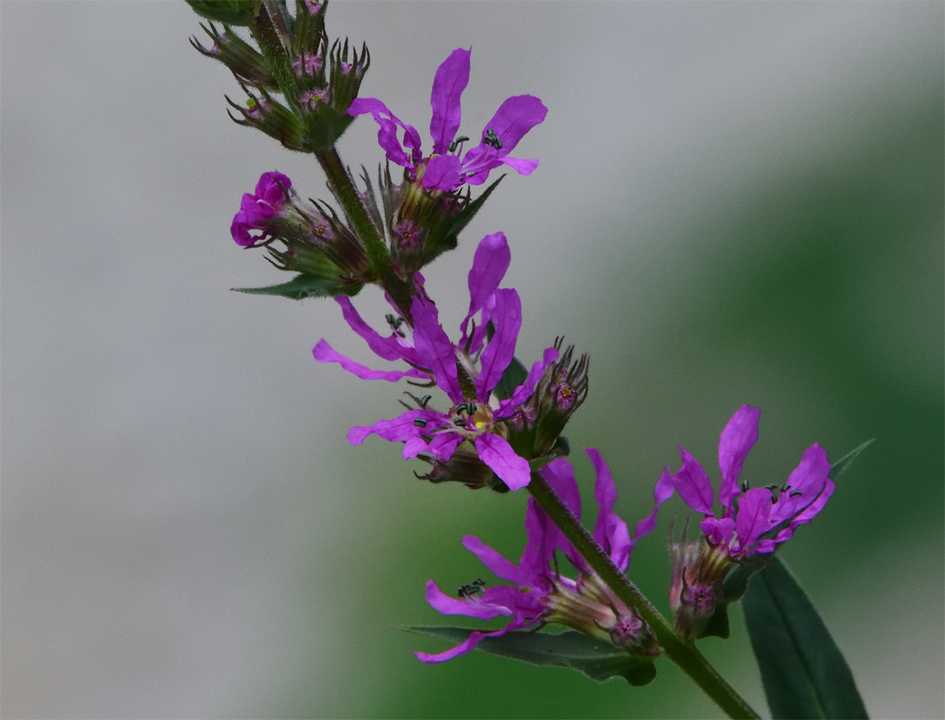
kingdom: Plantae
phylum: Tracheophyta
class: Magnoliopsida
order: Myrtales
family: Lythraceae
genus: Lythrum
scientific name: Lythrum salicaria
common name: Purple loosestrife
